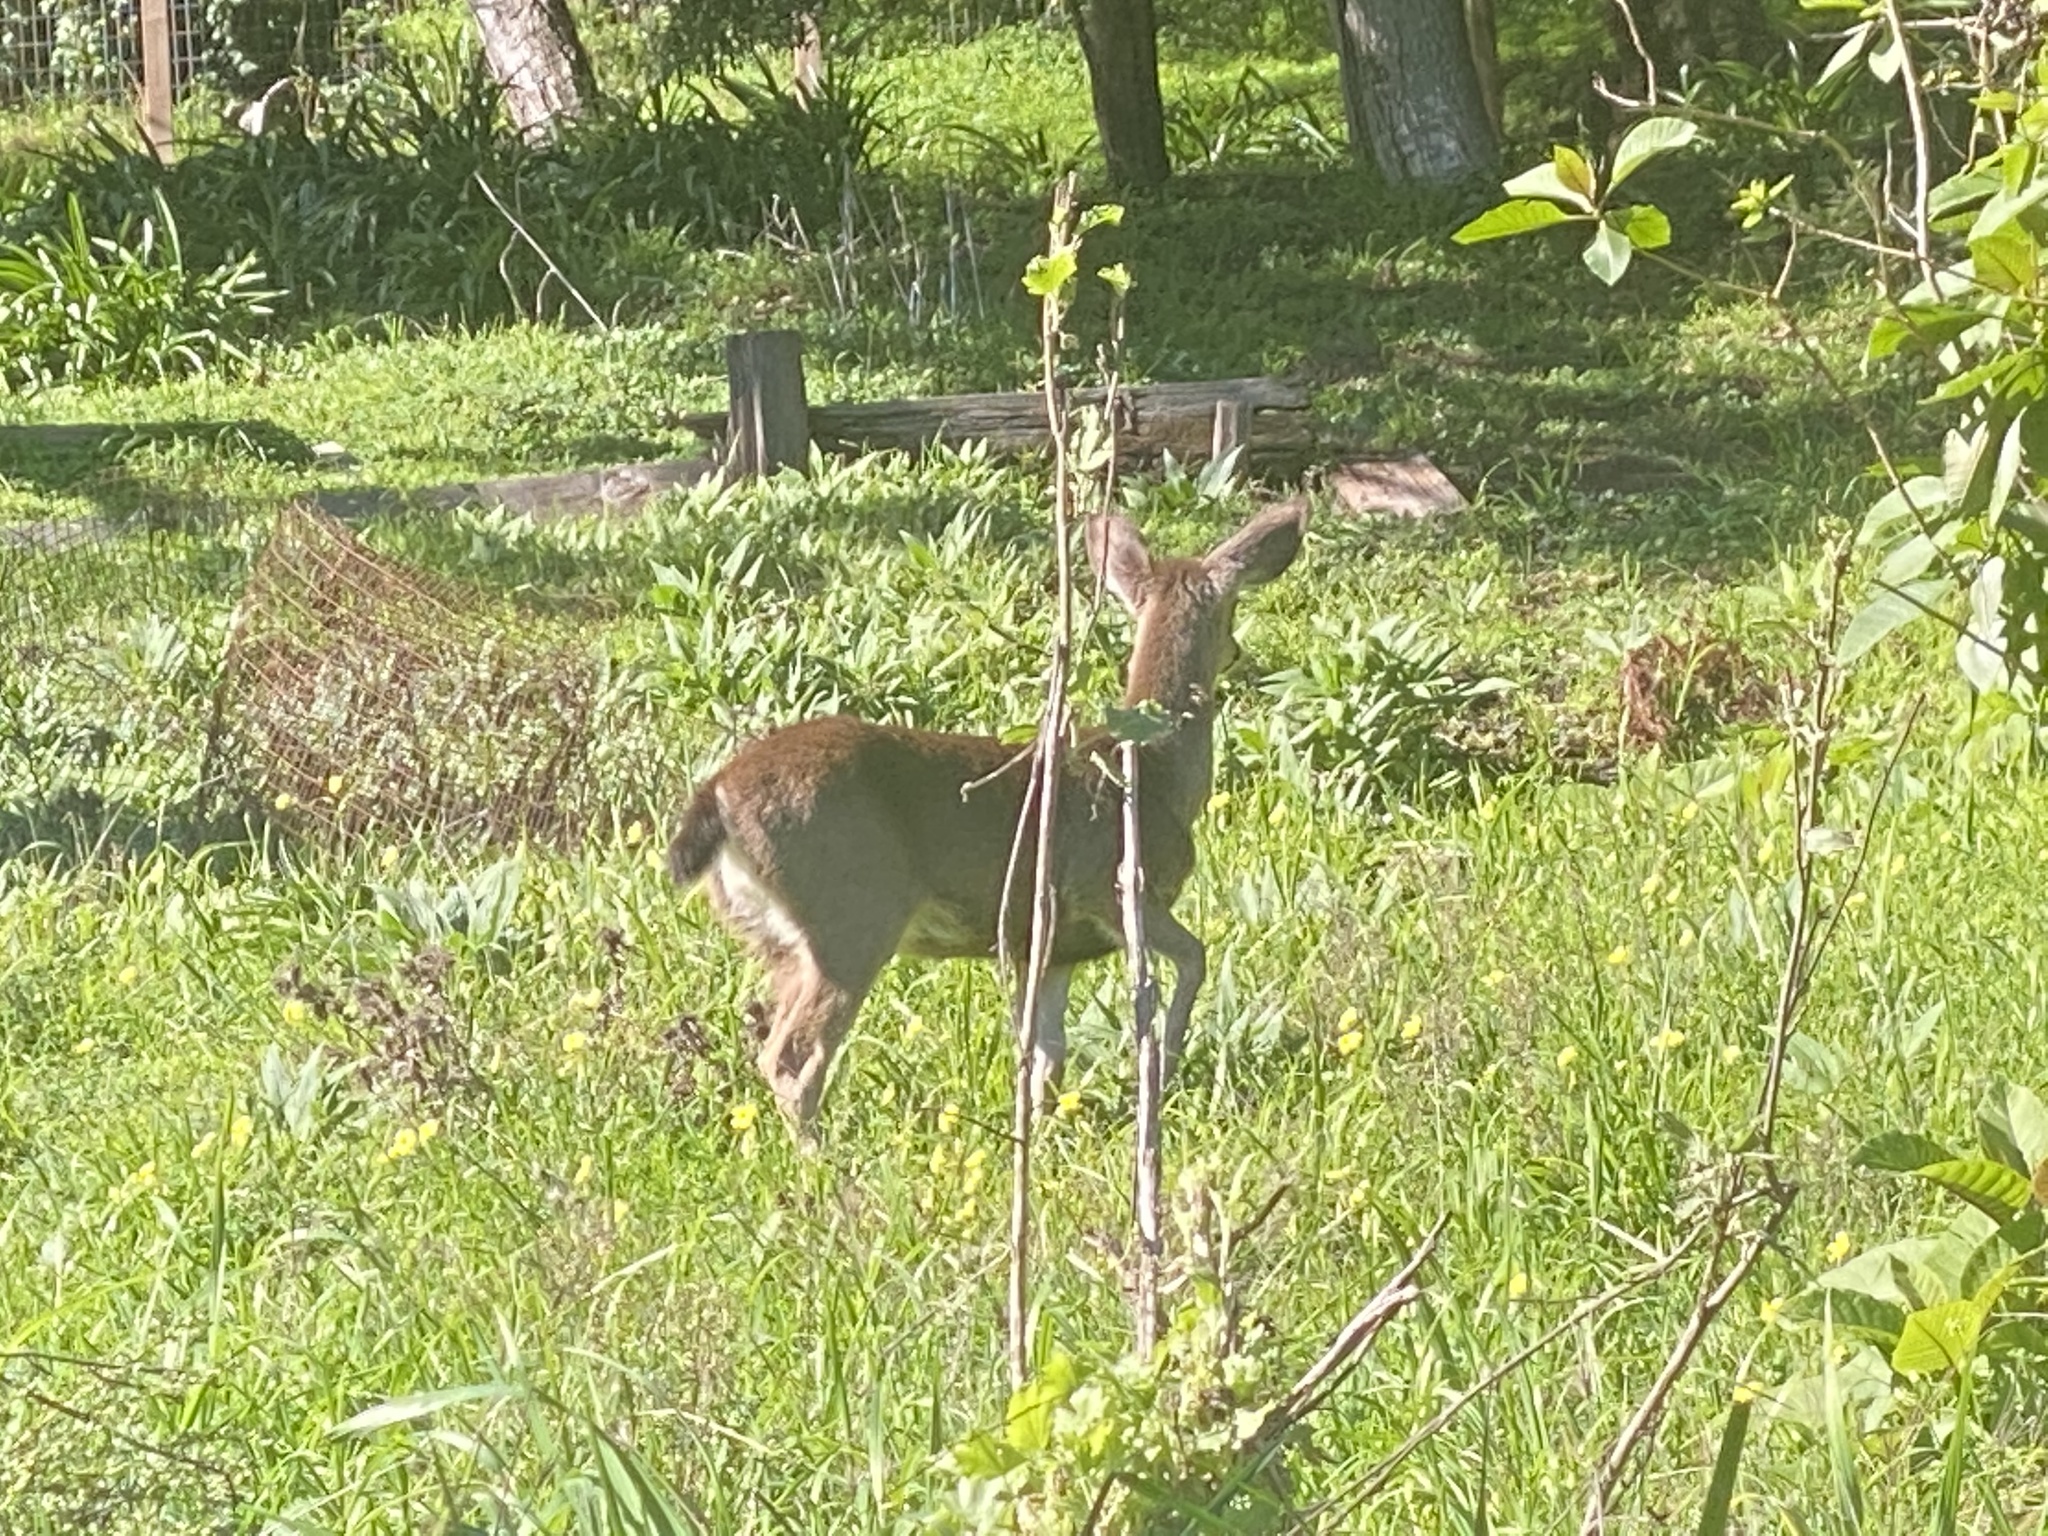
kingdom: Animalia
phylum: Chordata
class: Mammalia
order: Artiodactyla
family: Cervidae
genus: Odocoileus
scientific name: Odocoileus hemionus
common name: Mule deer
